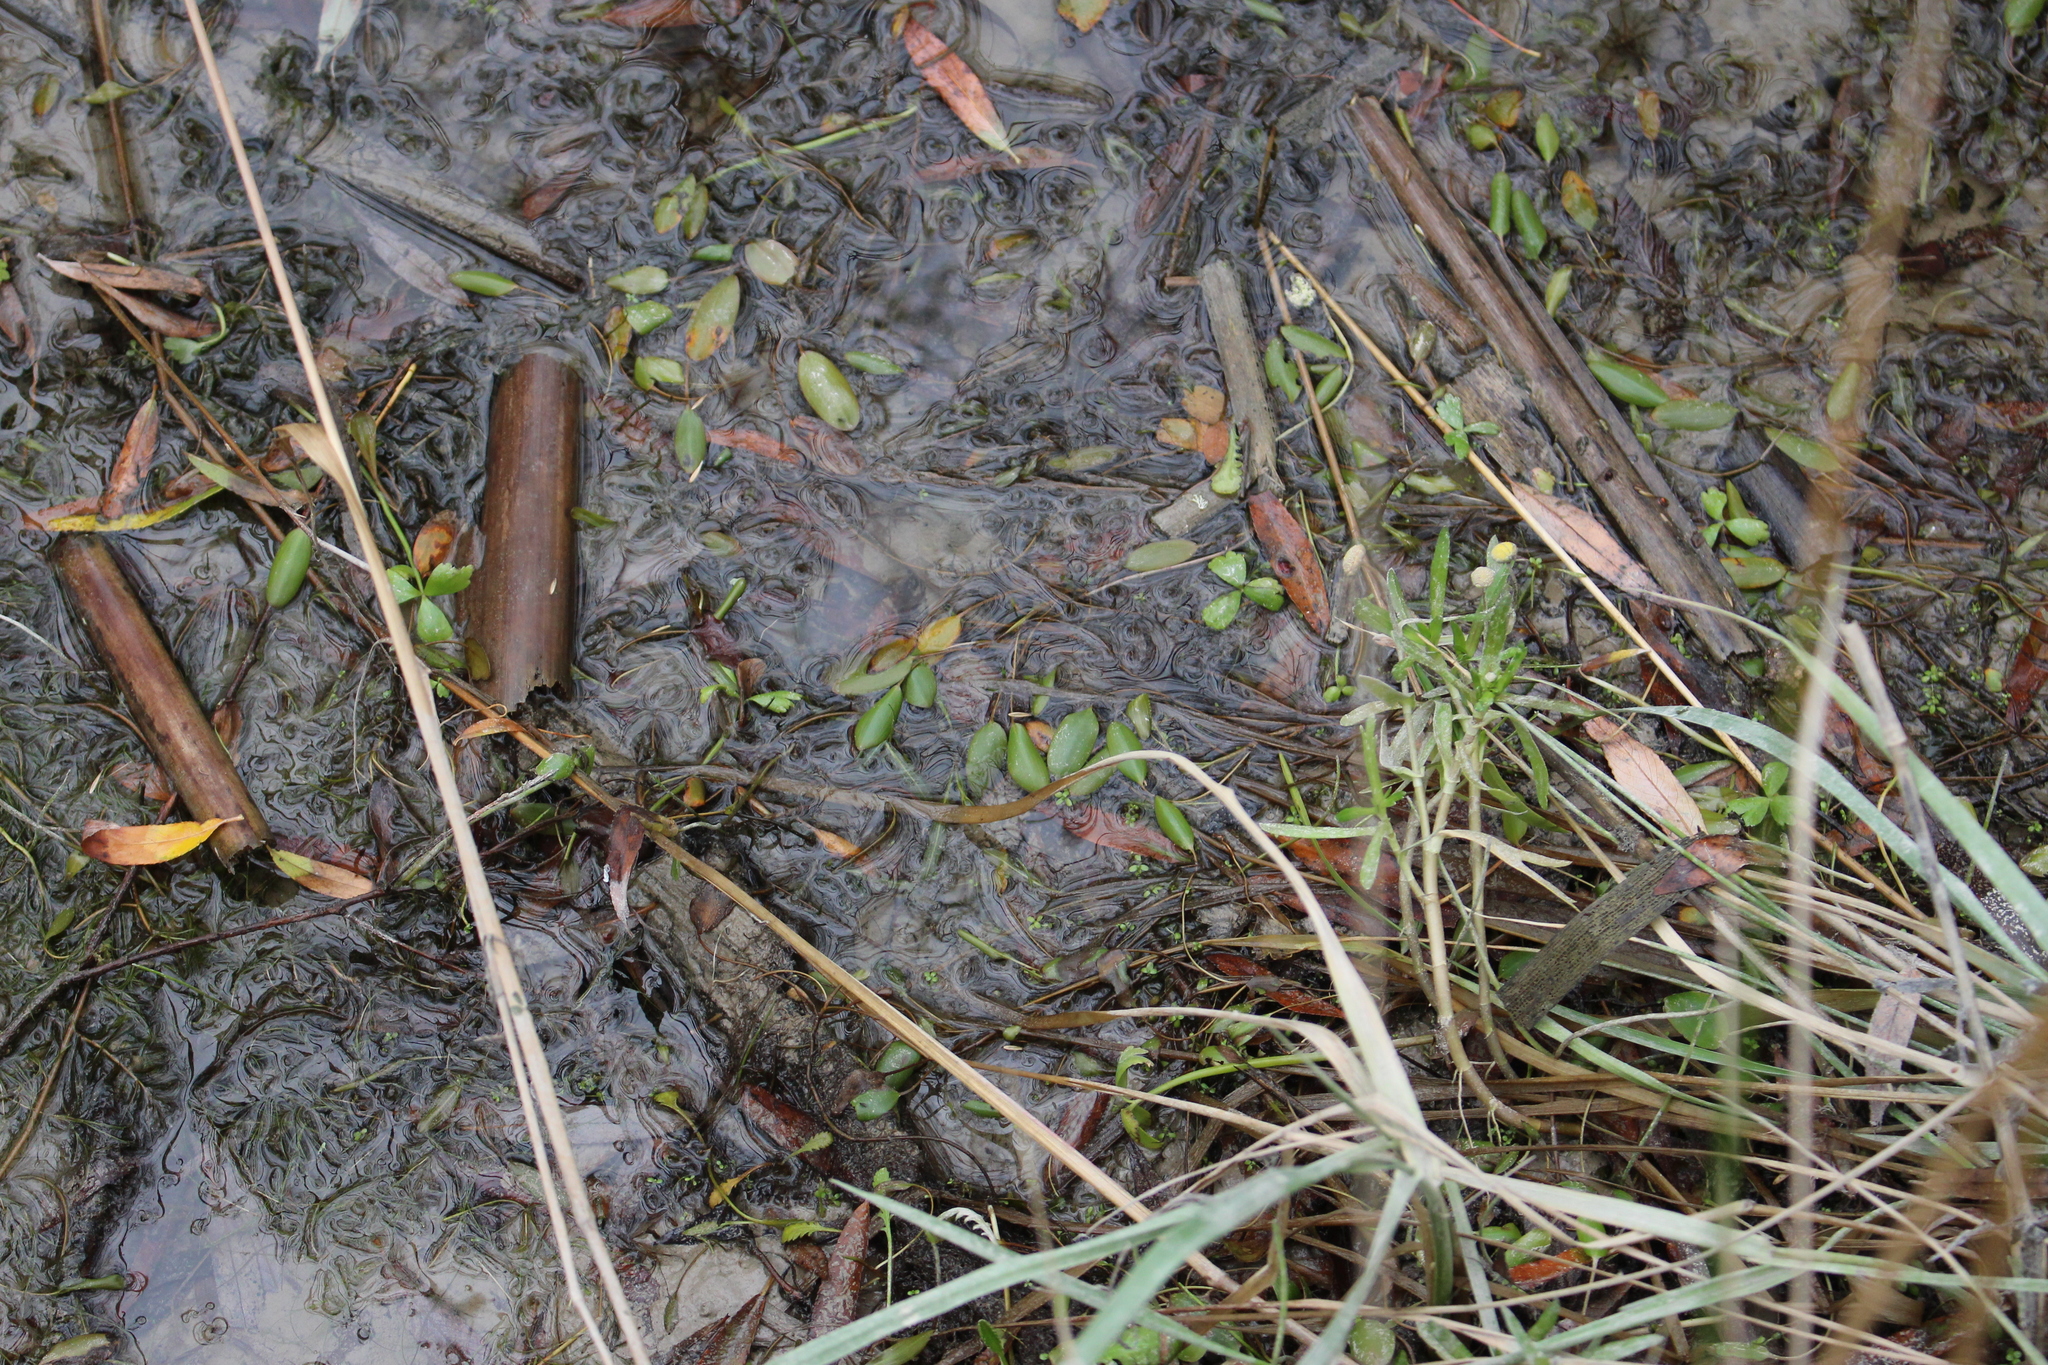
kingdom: Plantae
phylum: Tracheophyta
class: Liliopsida
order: Alismatales
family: Potamogetonaceae
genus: Potamogeton
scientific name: Potamogeton cheesemanii
